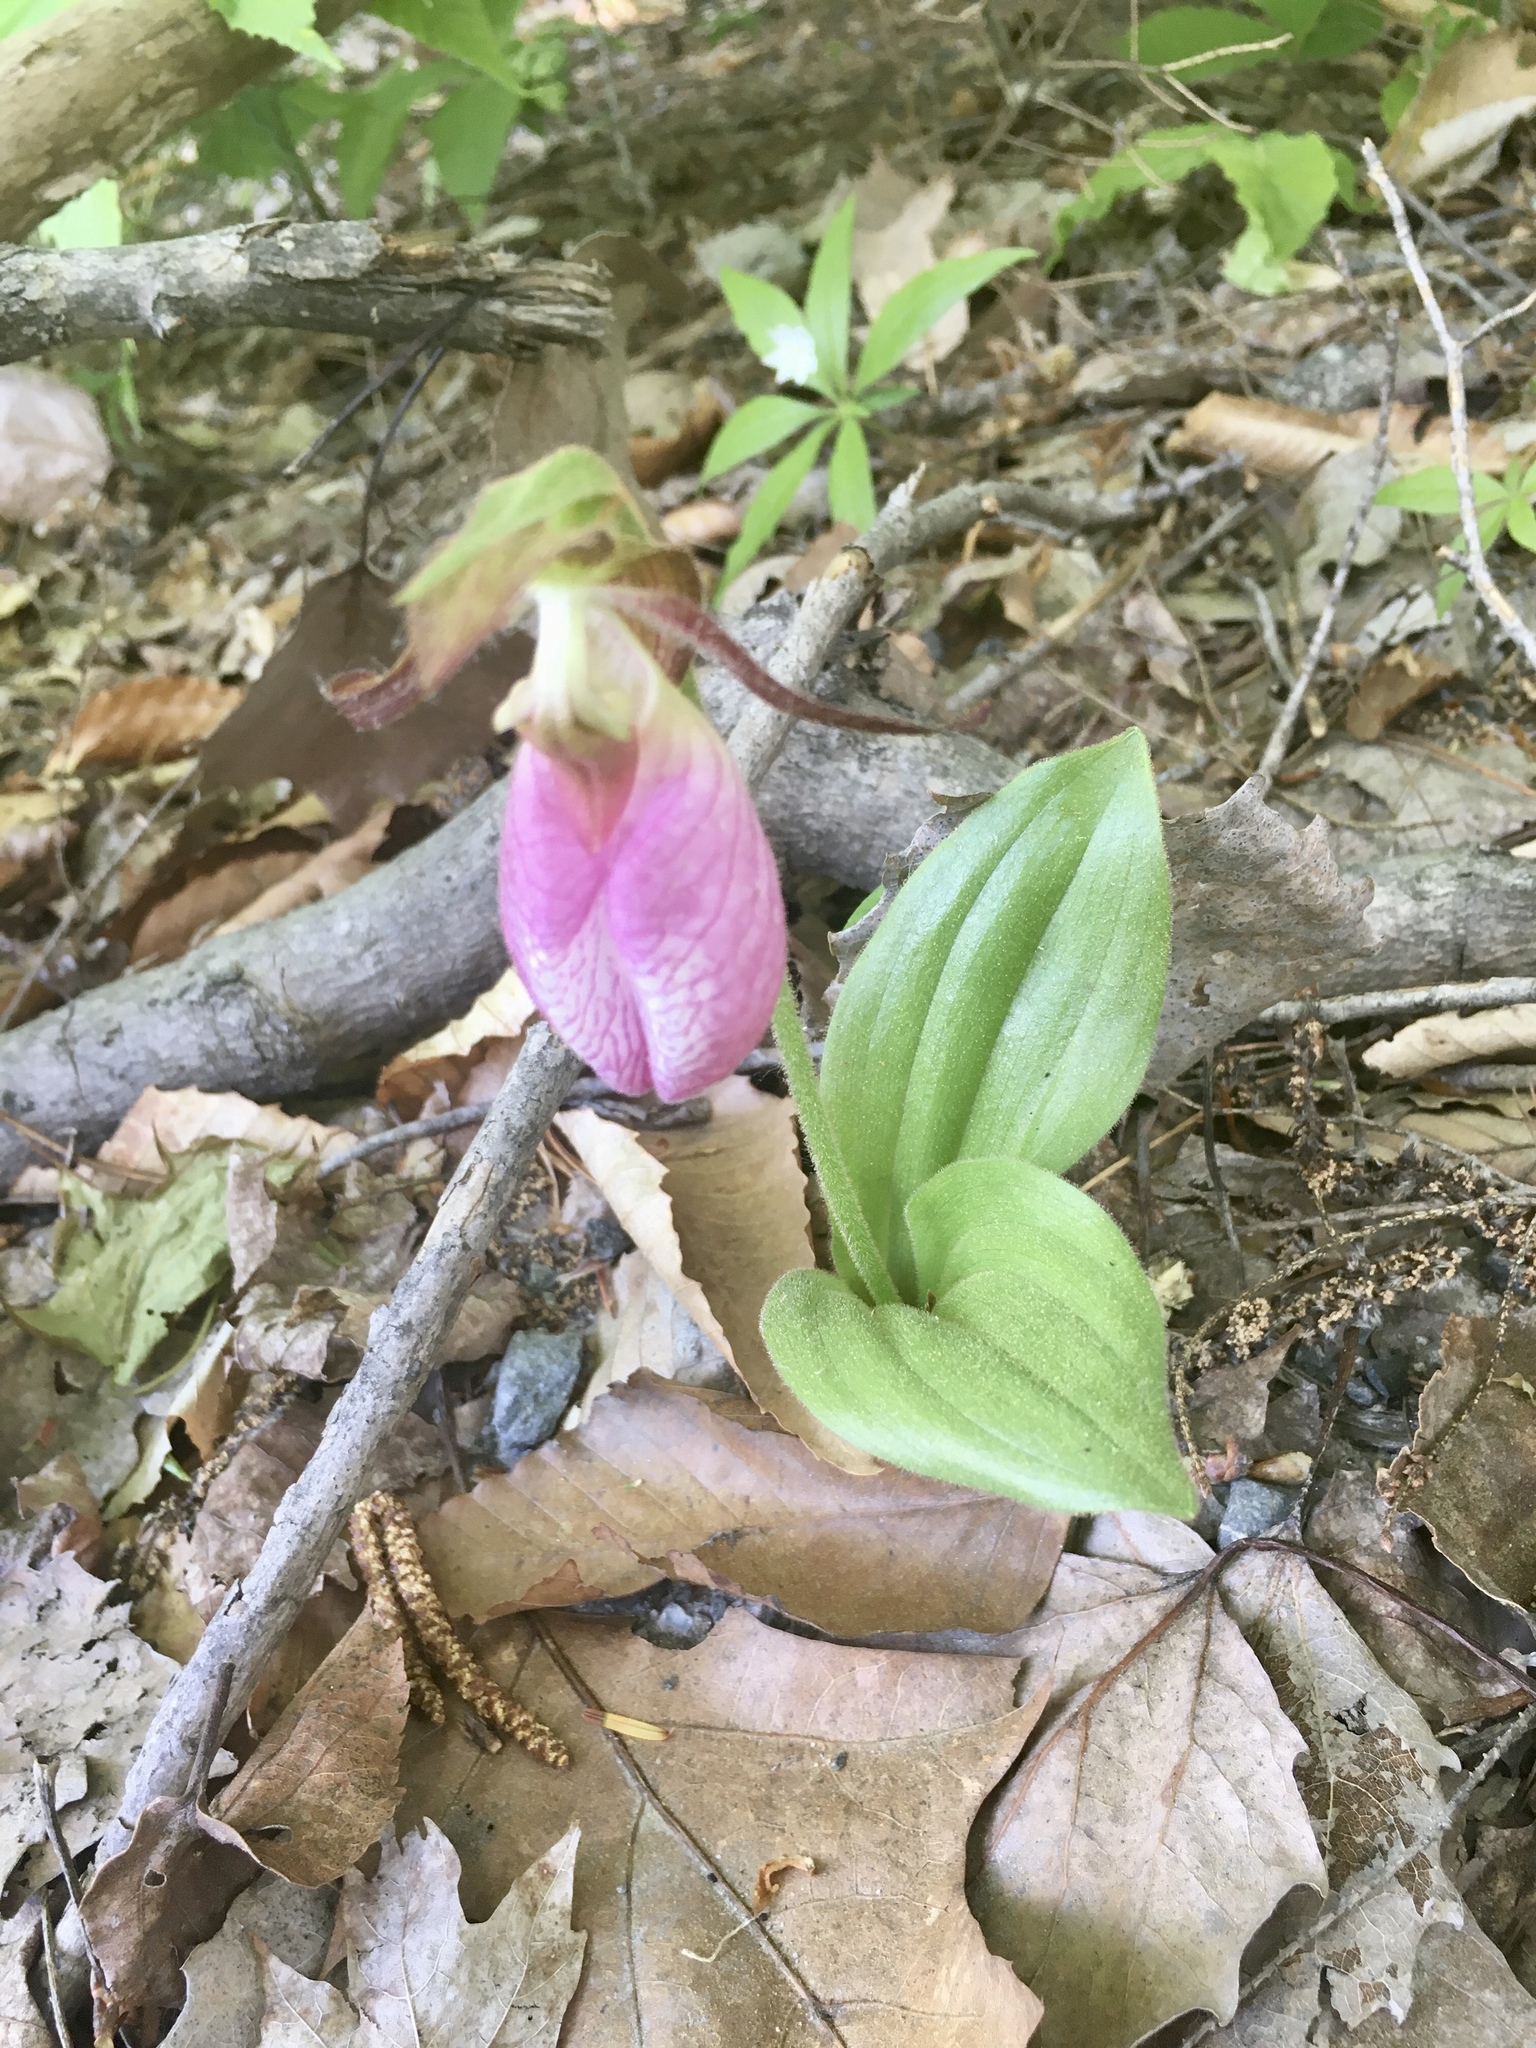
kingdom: Plantae
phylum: Tracheophyta
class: Liliopsida
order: Asparagales
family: Orchidaceae
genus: Cypripedium
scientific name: Cypripedium acaule
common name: Pink lady's-slipper
